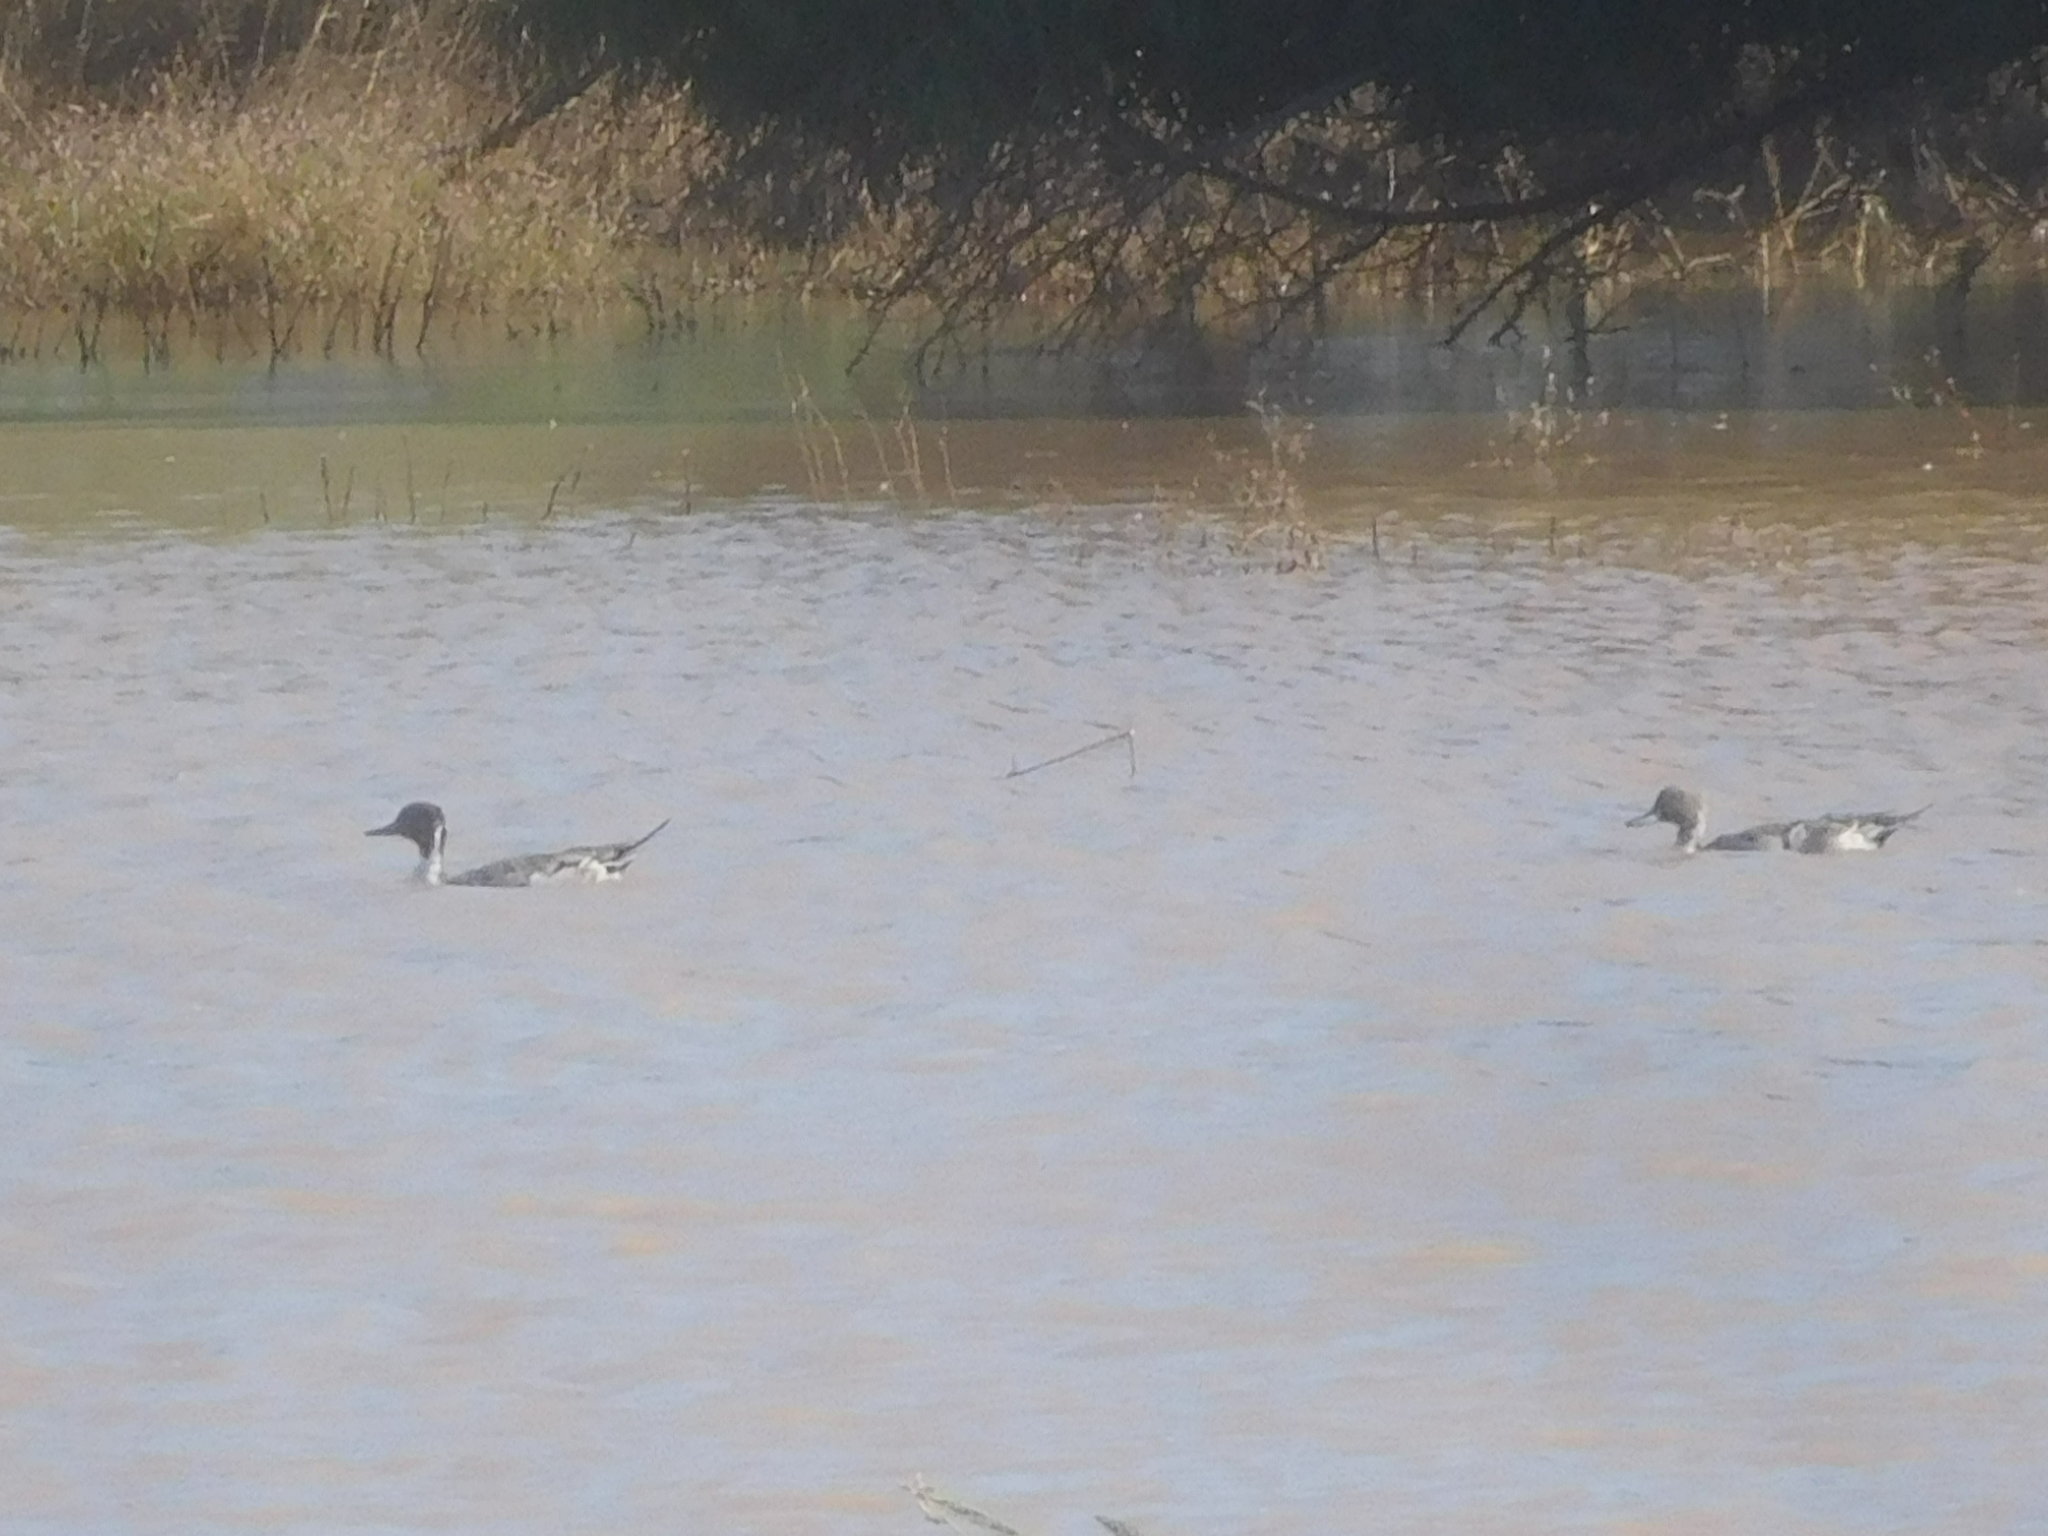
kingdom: Animalia
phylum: Chordata
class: Aves
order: Anseriformes
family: Anatidae
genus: Anas
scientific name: Anas acuta
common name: Northern pintail
